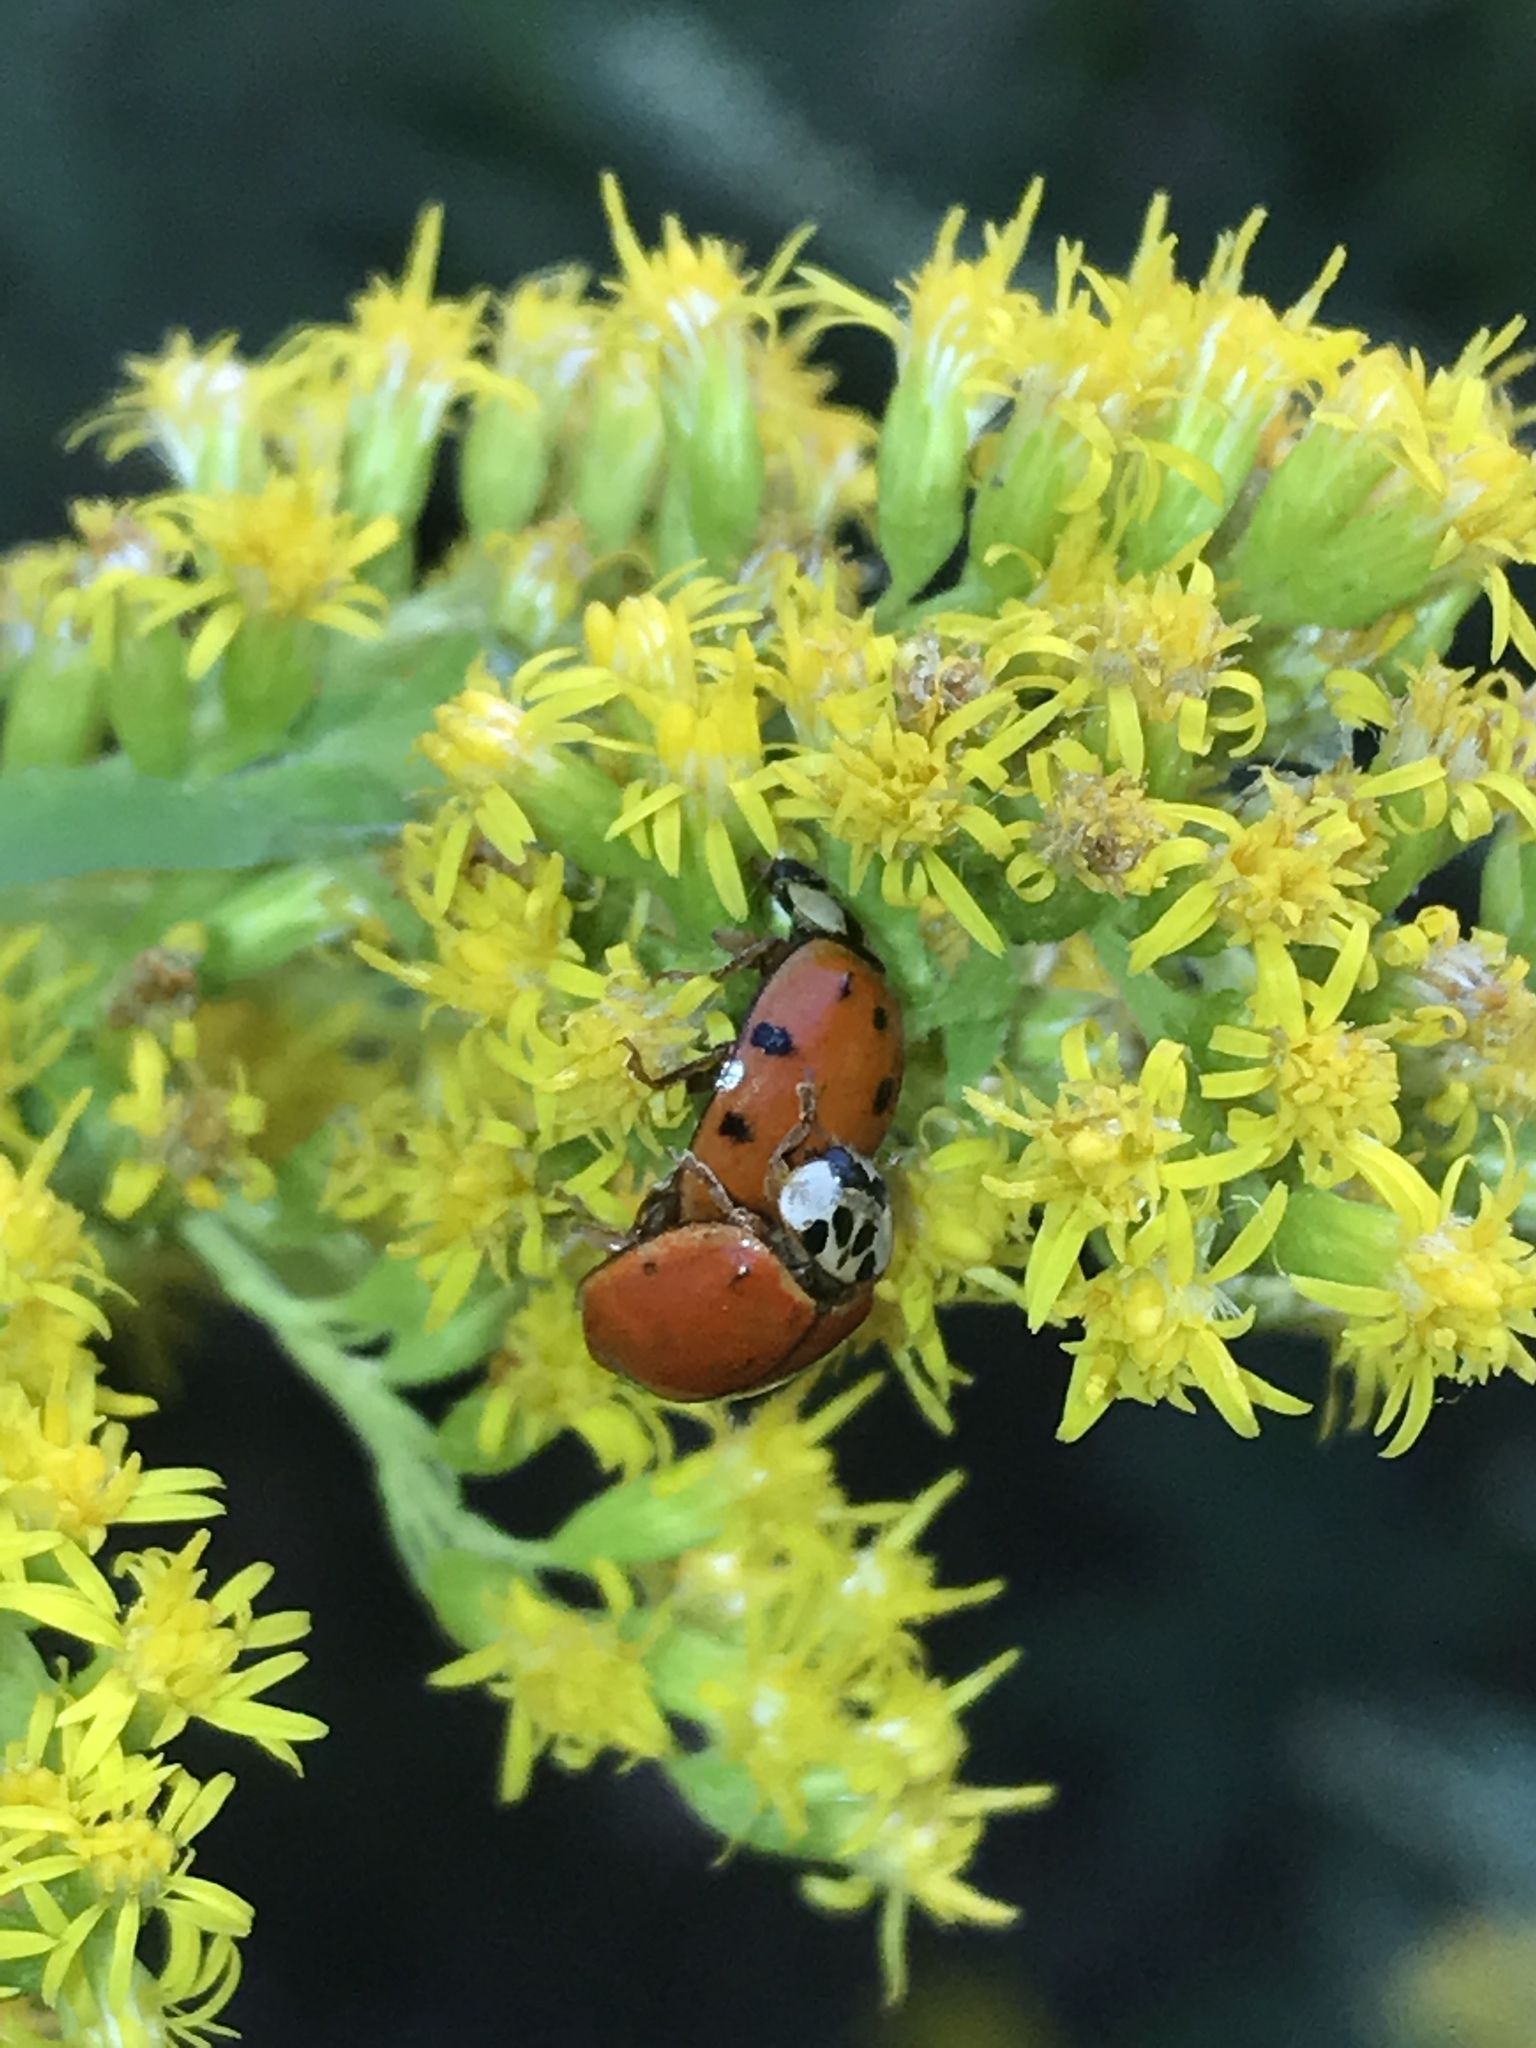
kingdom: Animalia
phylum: Arthropoda
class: Insecta
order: Coleoptera
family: Coccinellidae
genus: Harmonia
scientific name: Harmonia axyridis
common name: Harlequin ladybird
